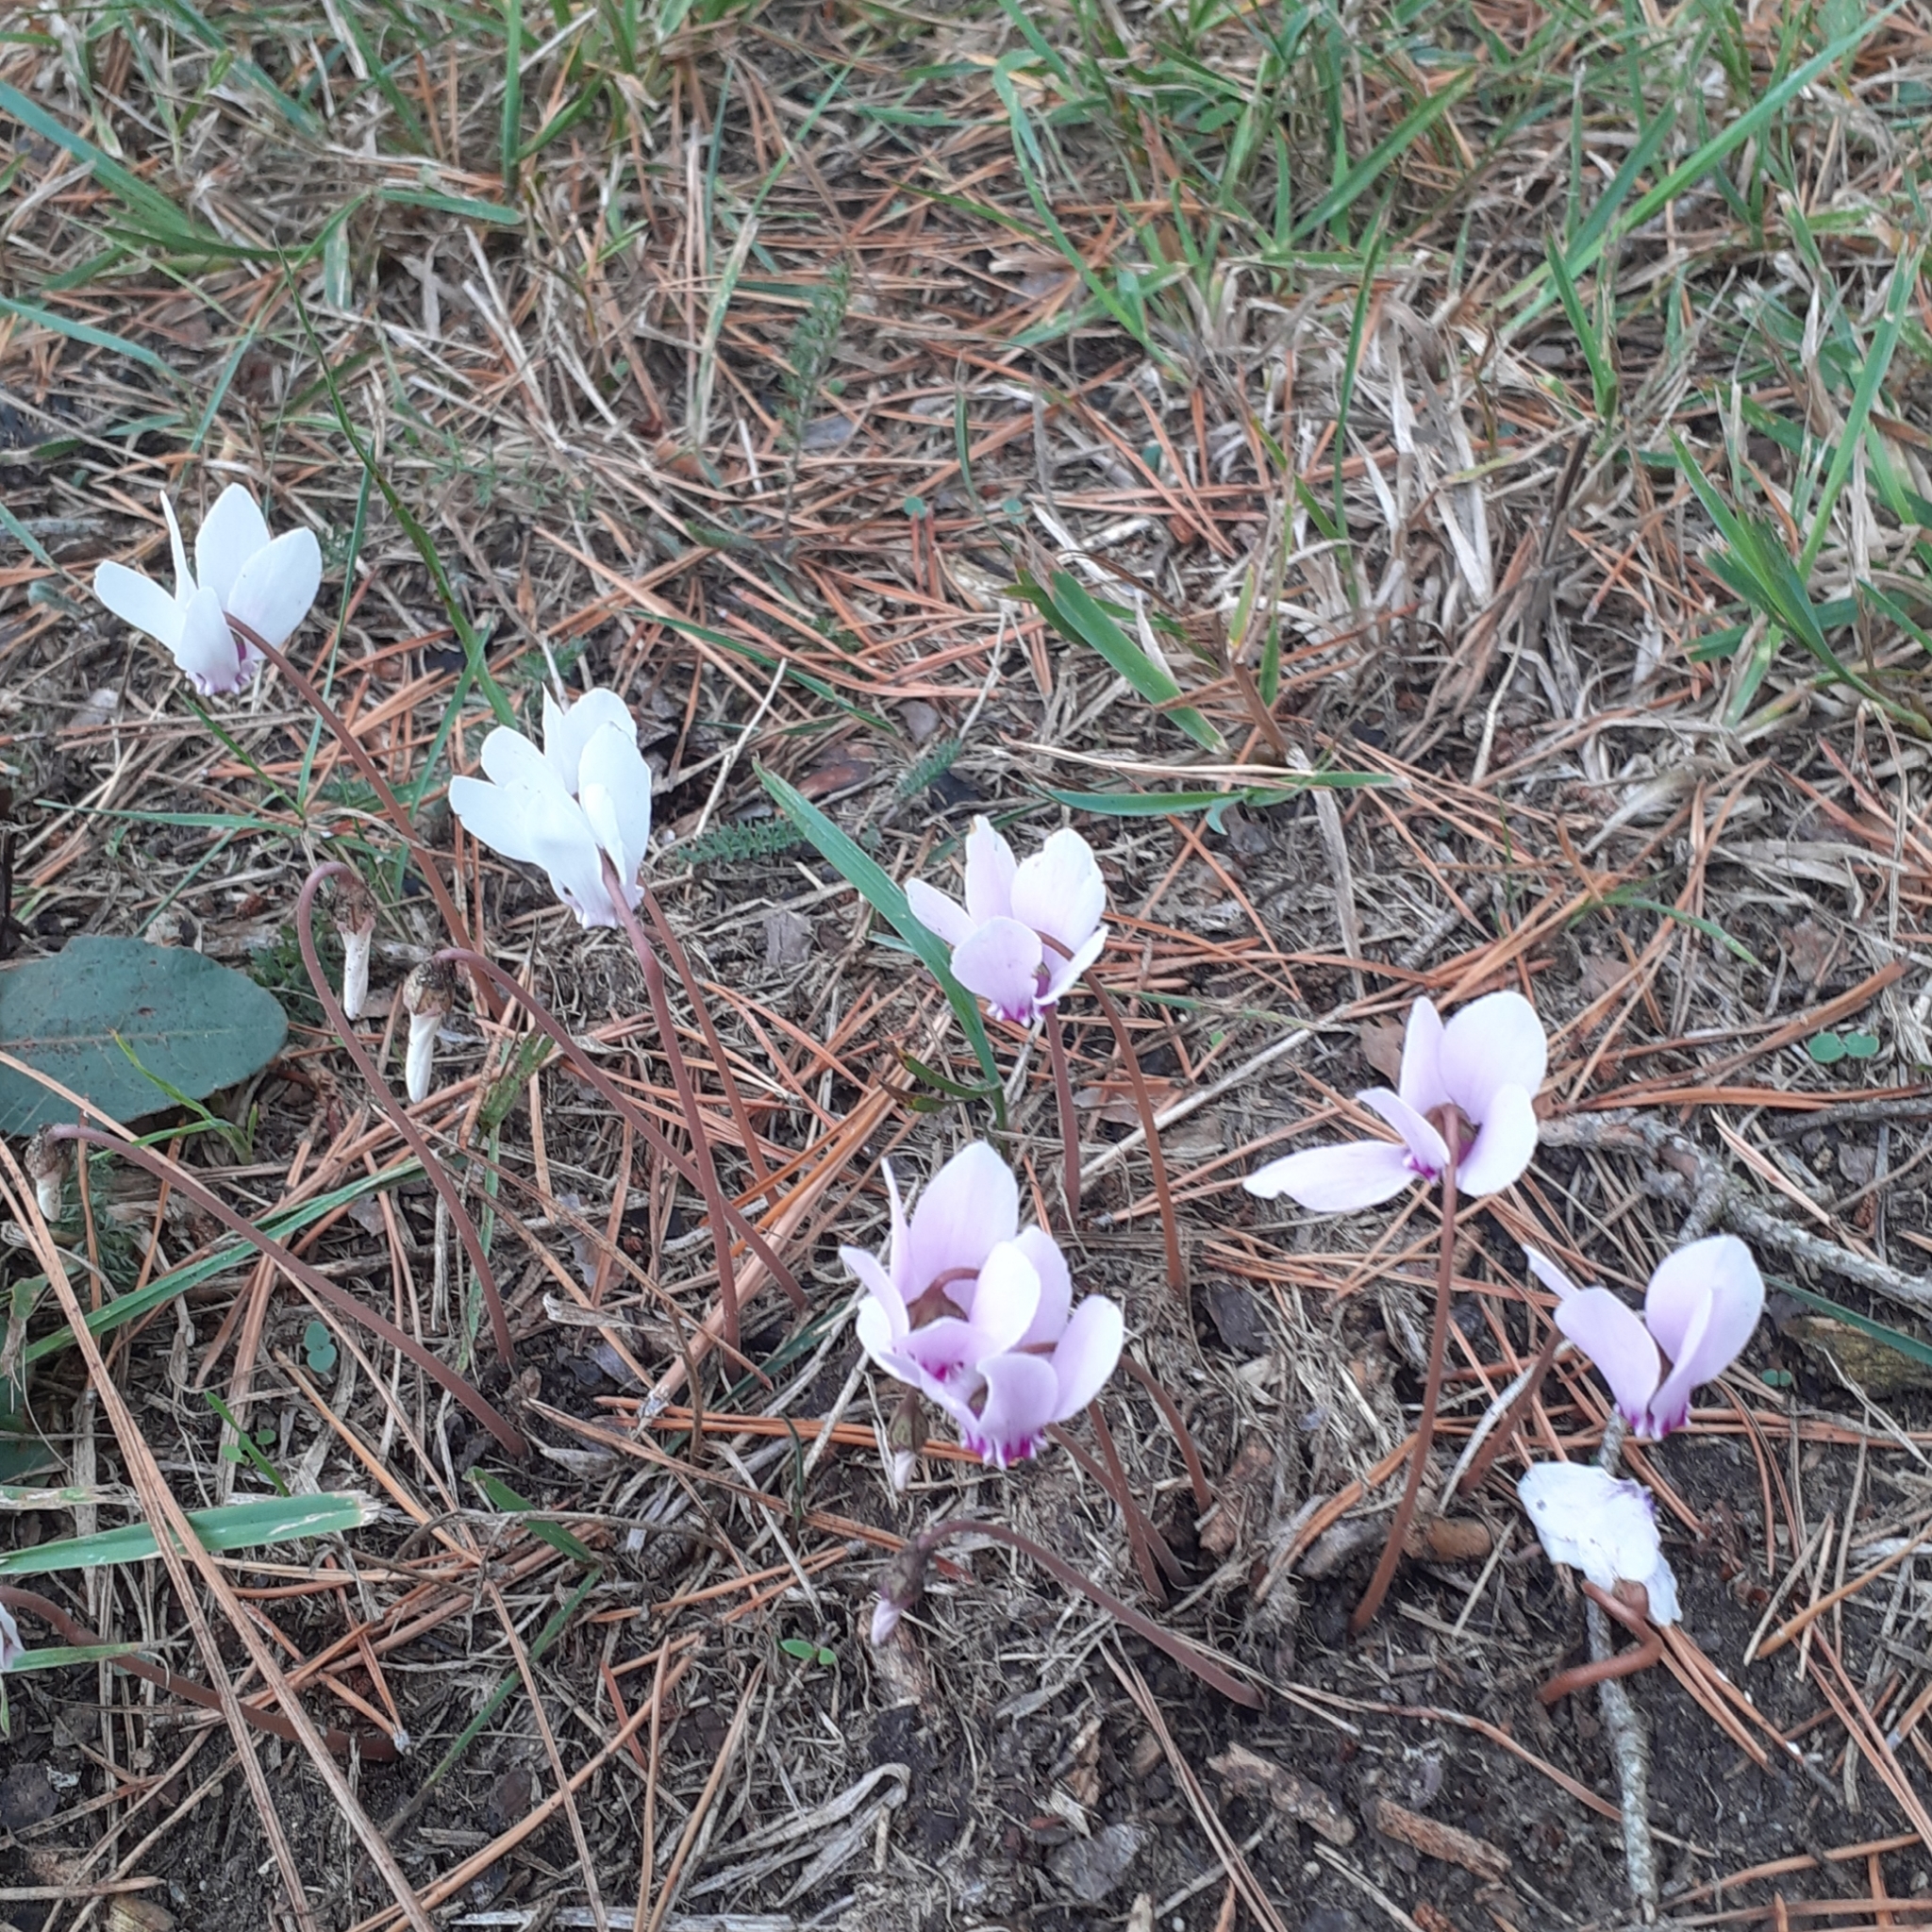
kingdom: Plantae
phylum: Tracheophyta
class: Magnoliopsida
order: Ericales
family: Primulaceae
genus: Cyclamen
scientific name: Cyclamen hederifolium
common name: Sowbread
